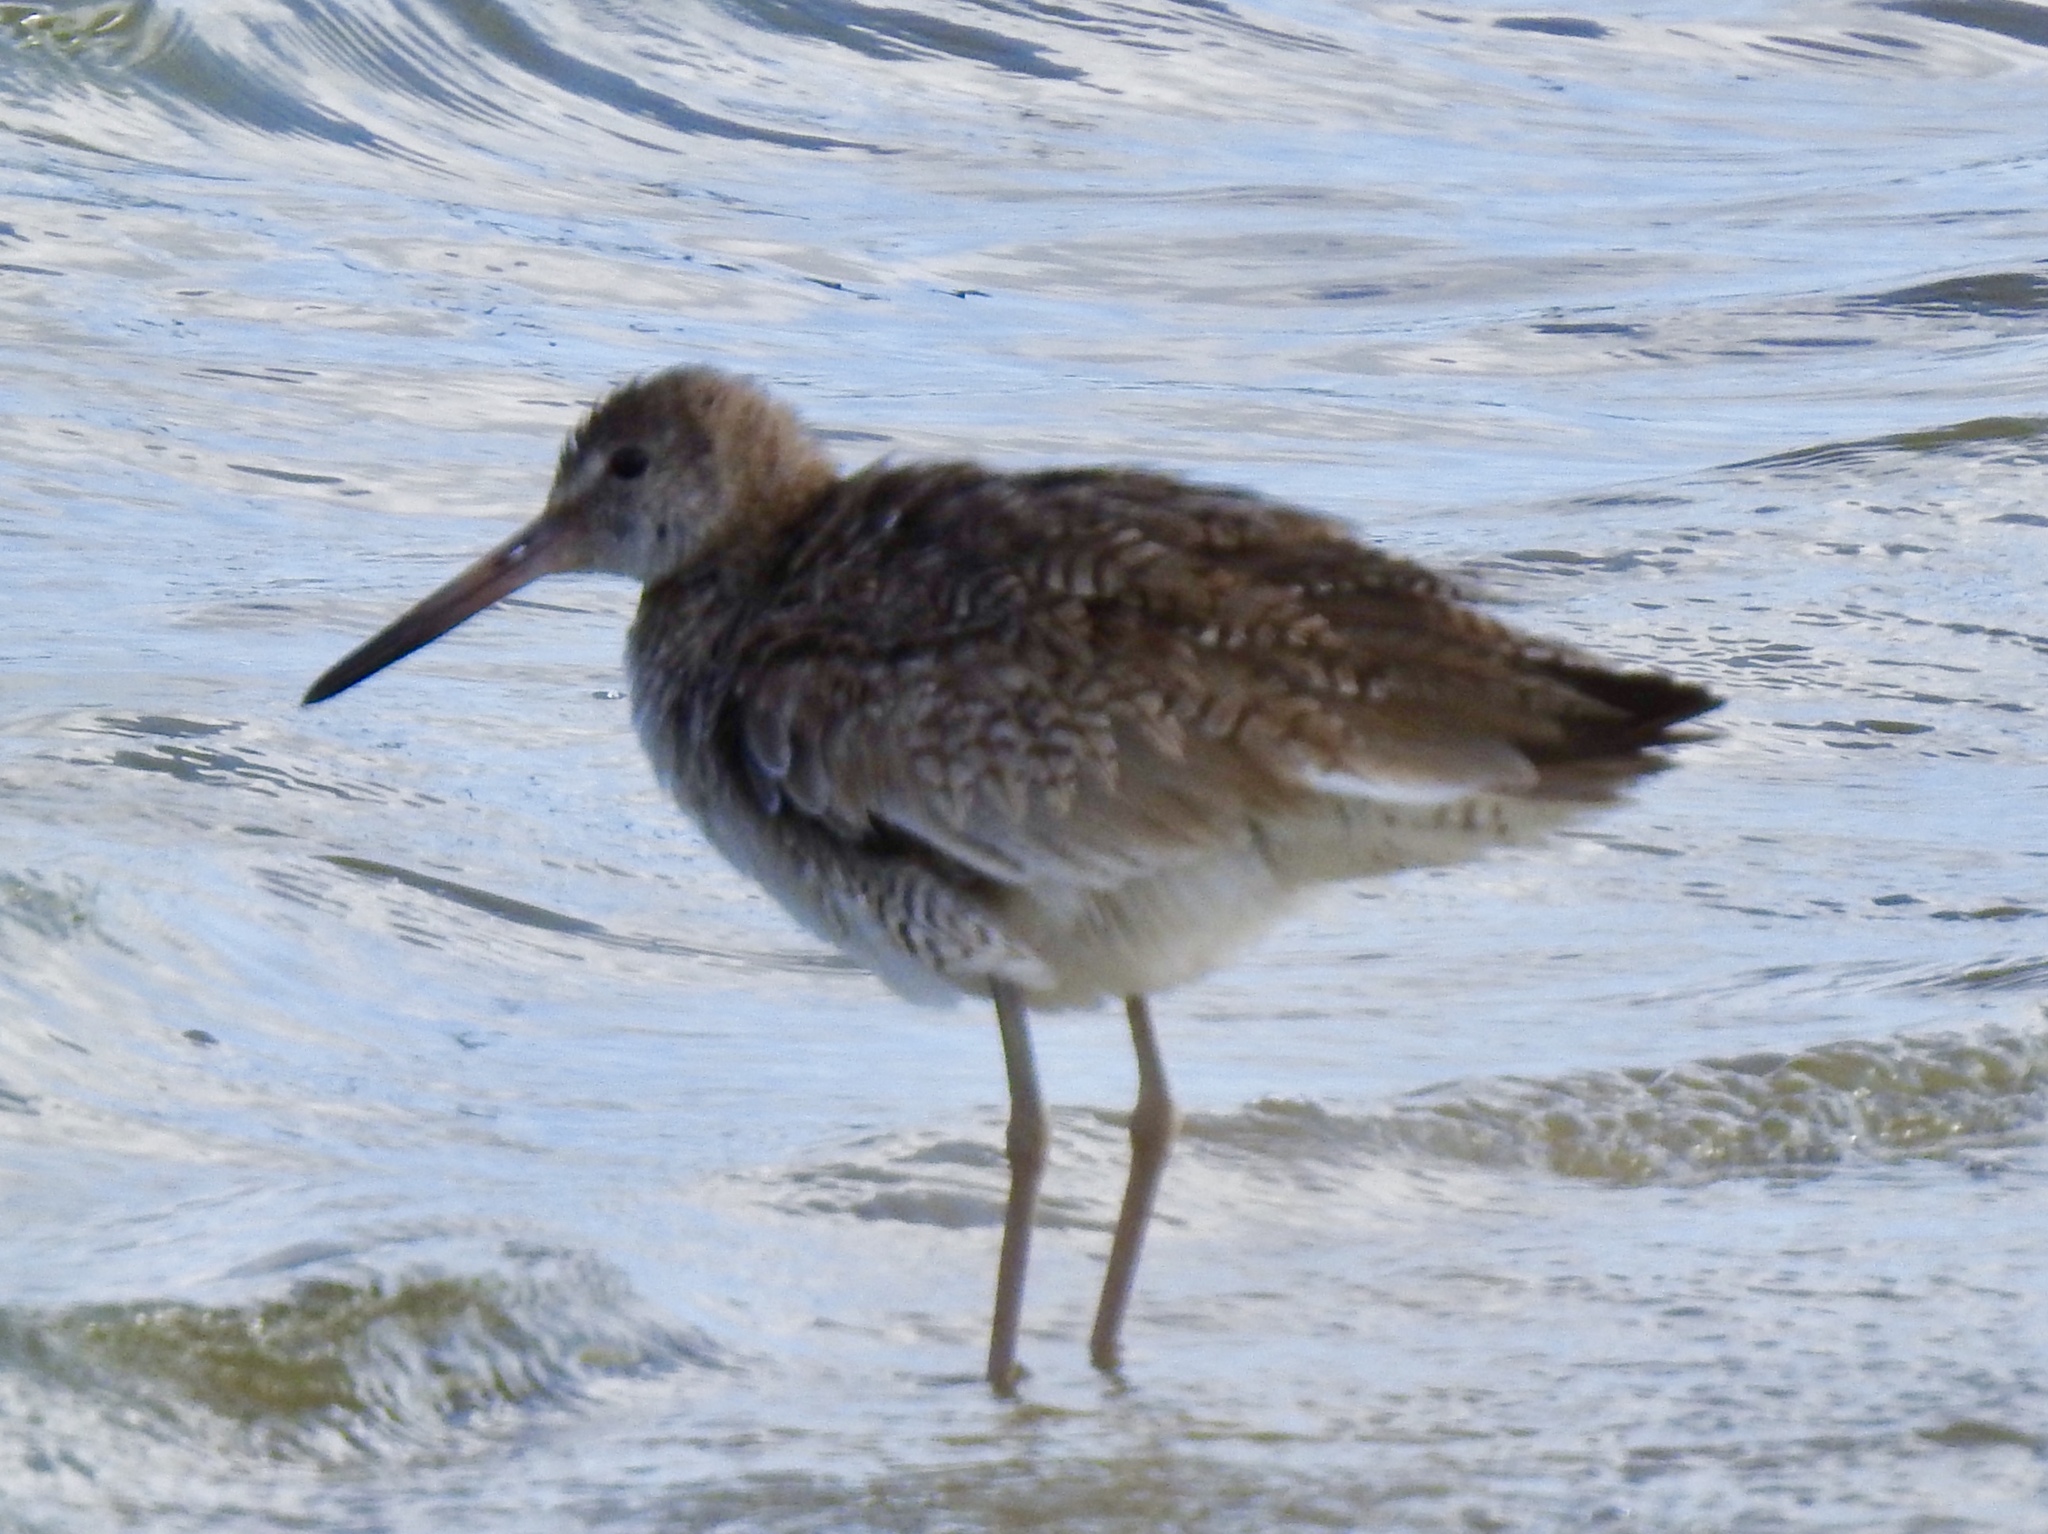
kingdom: Animalia
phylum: Chordata
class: Aves
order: Charadriiformes
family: Scolopacidae
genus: Tringa
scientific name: Tringa semipalmata
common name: Willet
